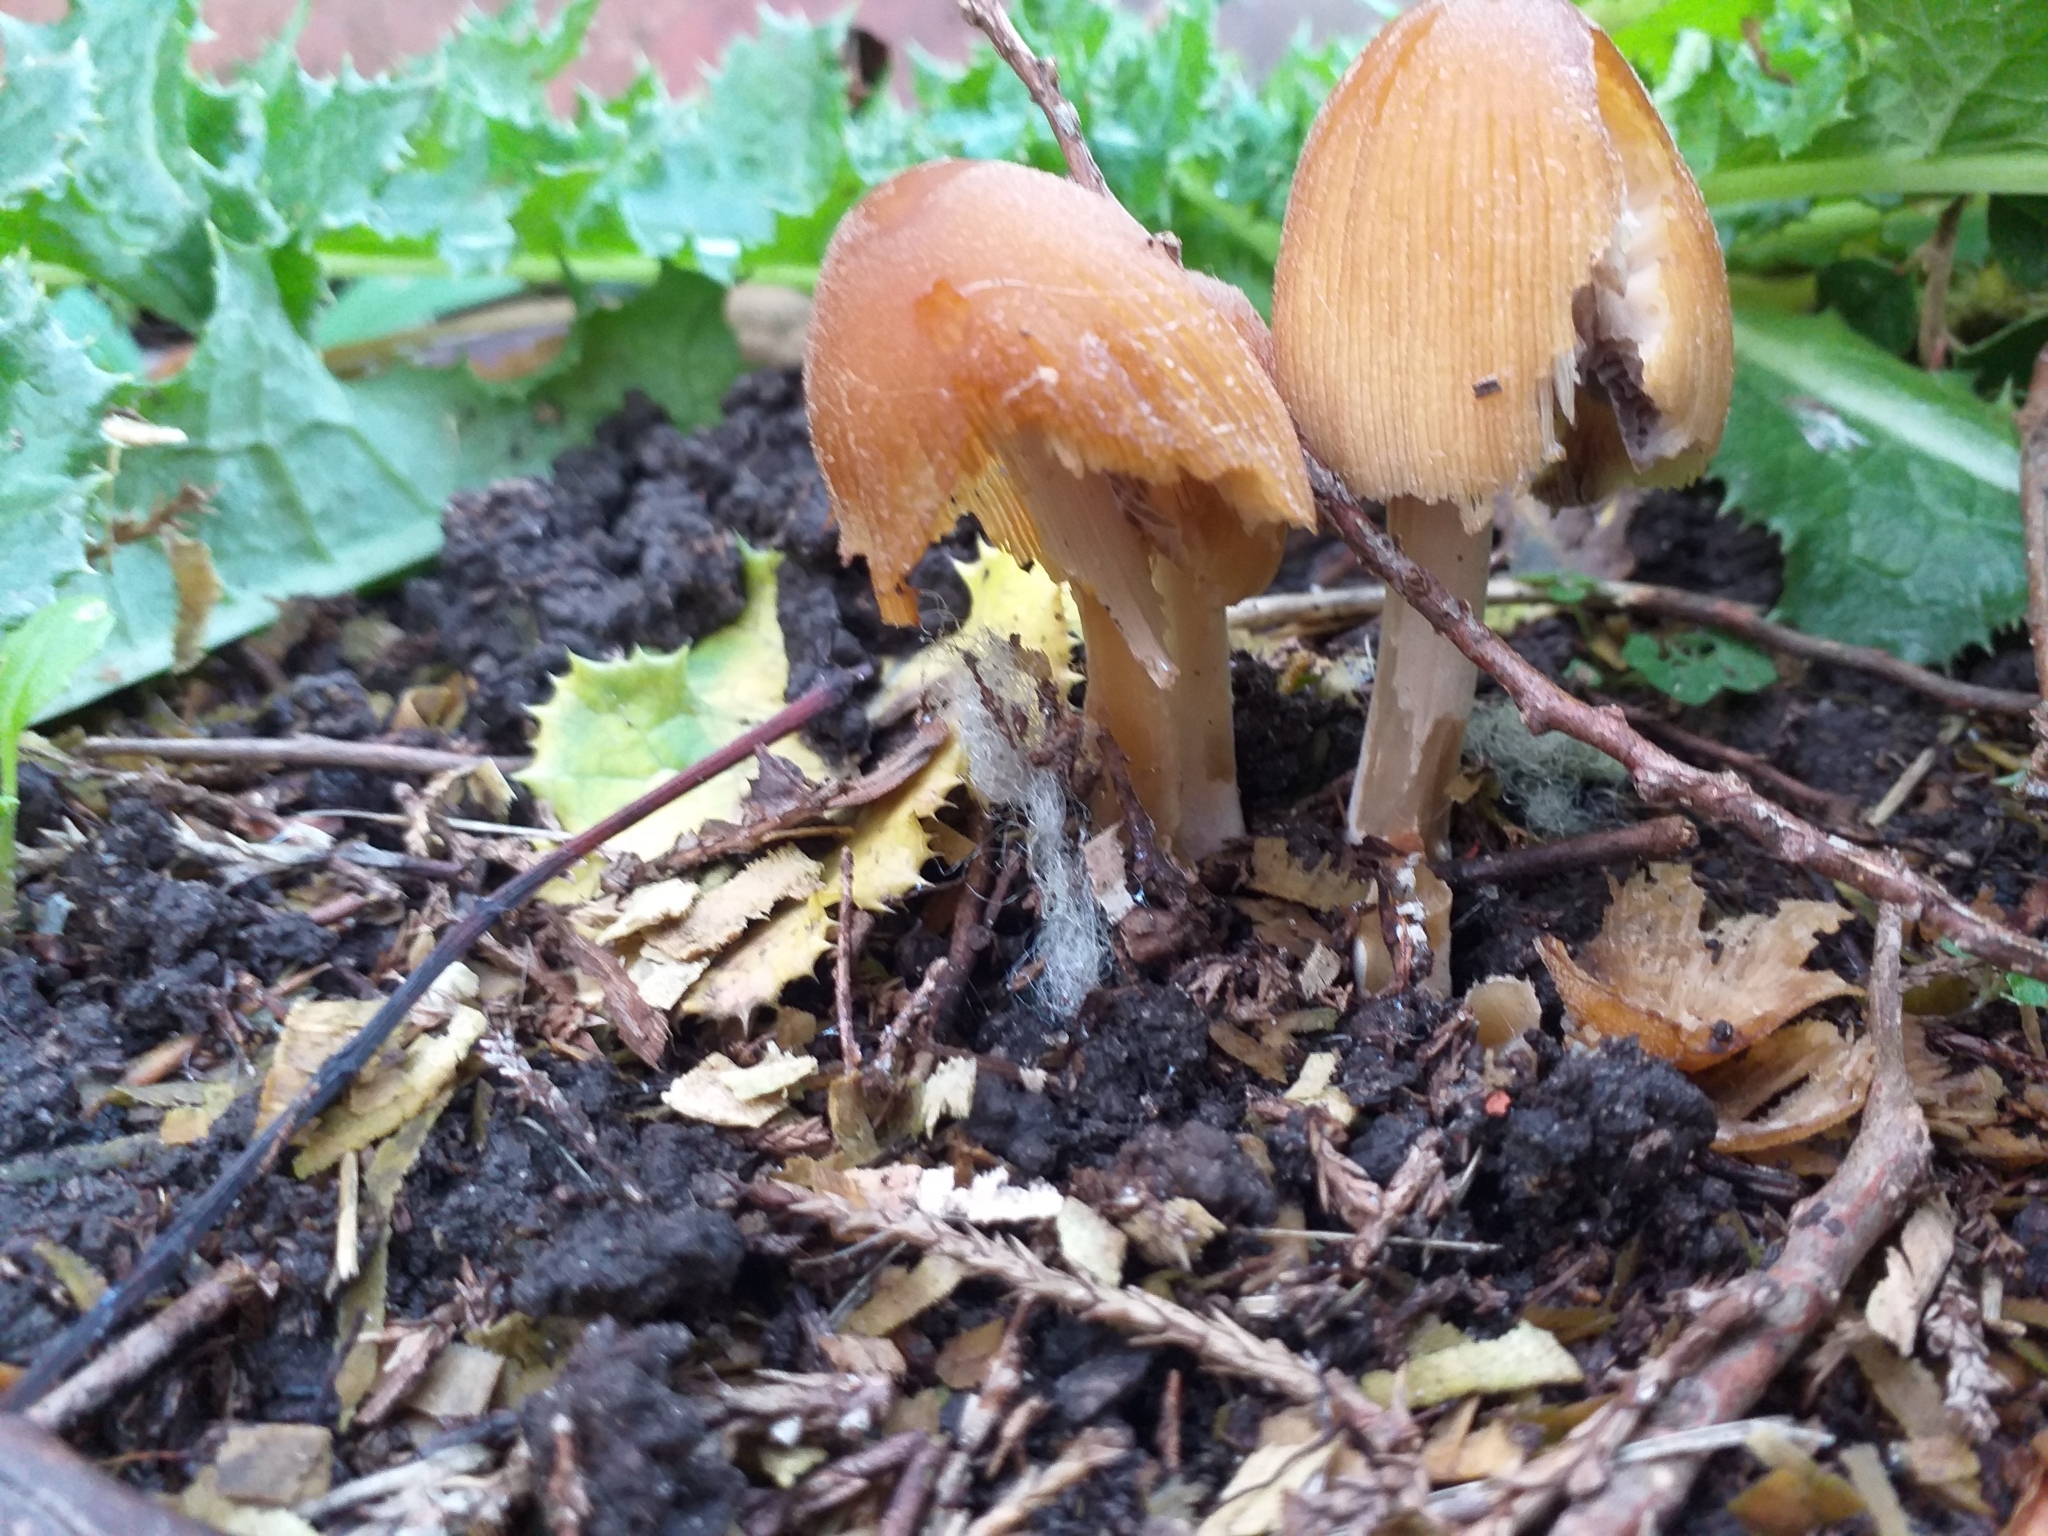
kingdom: Fungi
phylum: Basidiomycota
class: Agaricomycetes
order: Agaricales
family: Psathyrellaceae
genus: Coprinellus
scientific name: Coprinellus micaceus
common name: Glistening ink-cap
